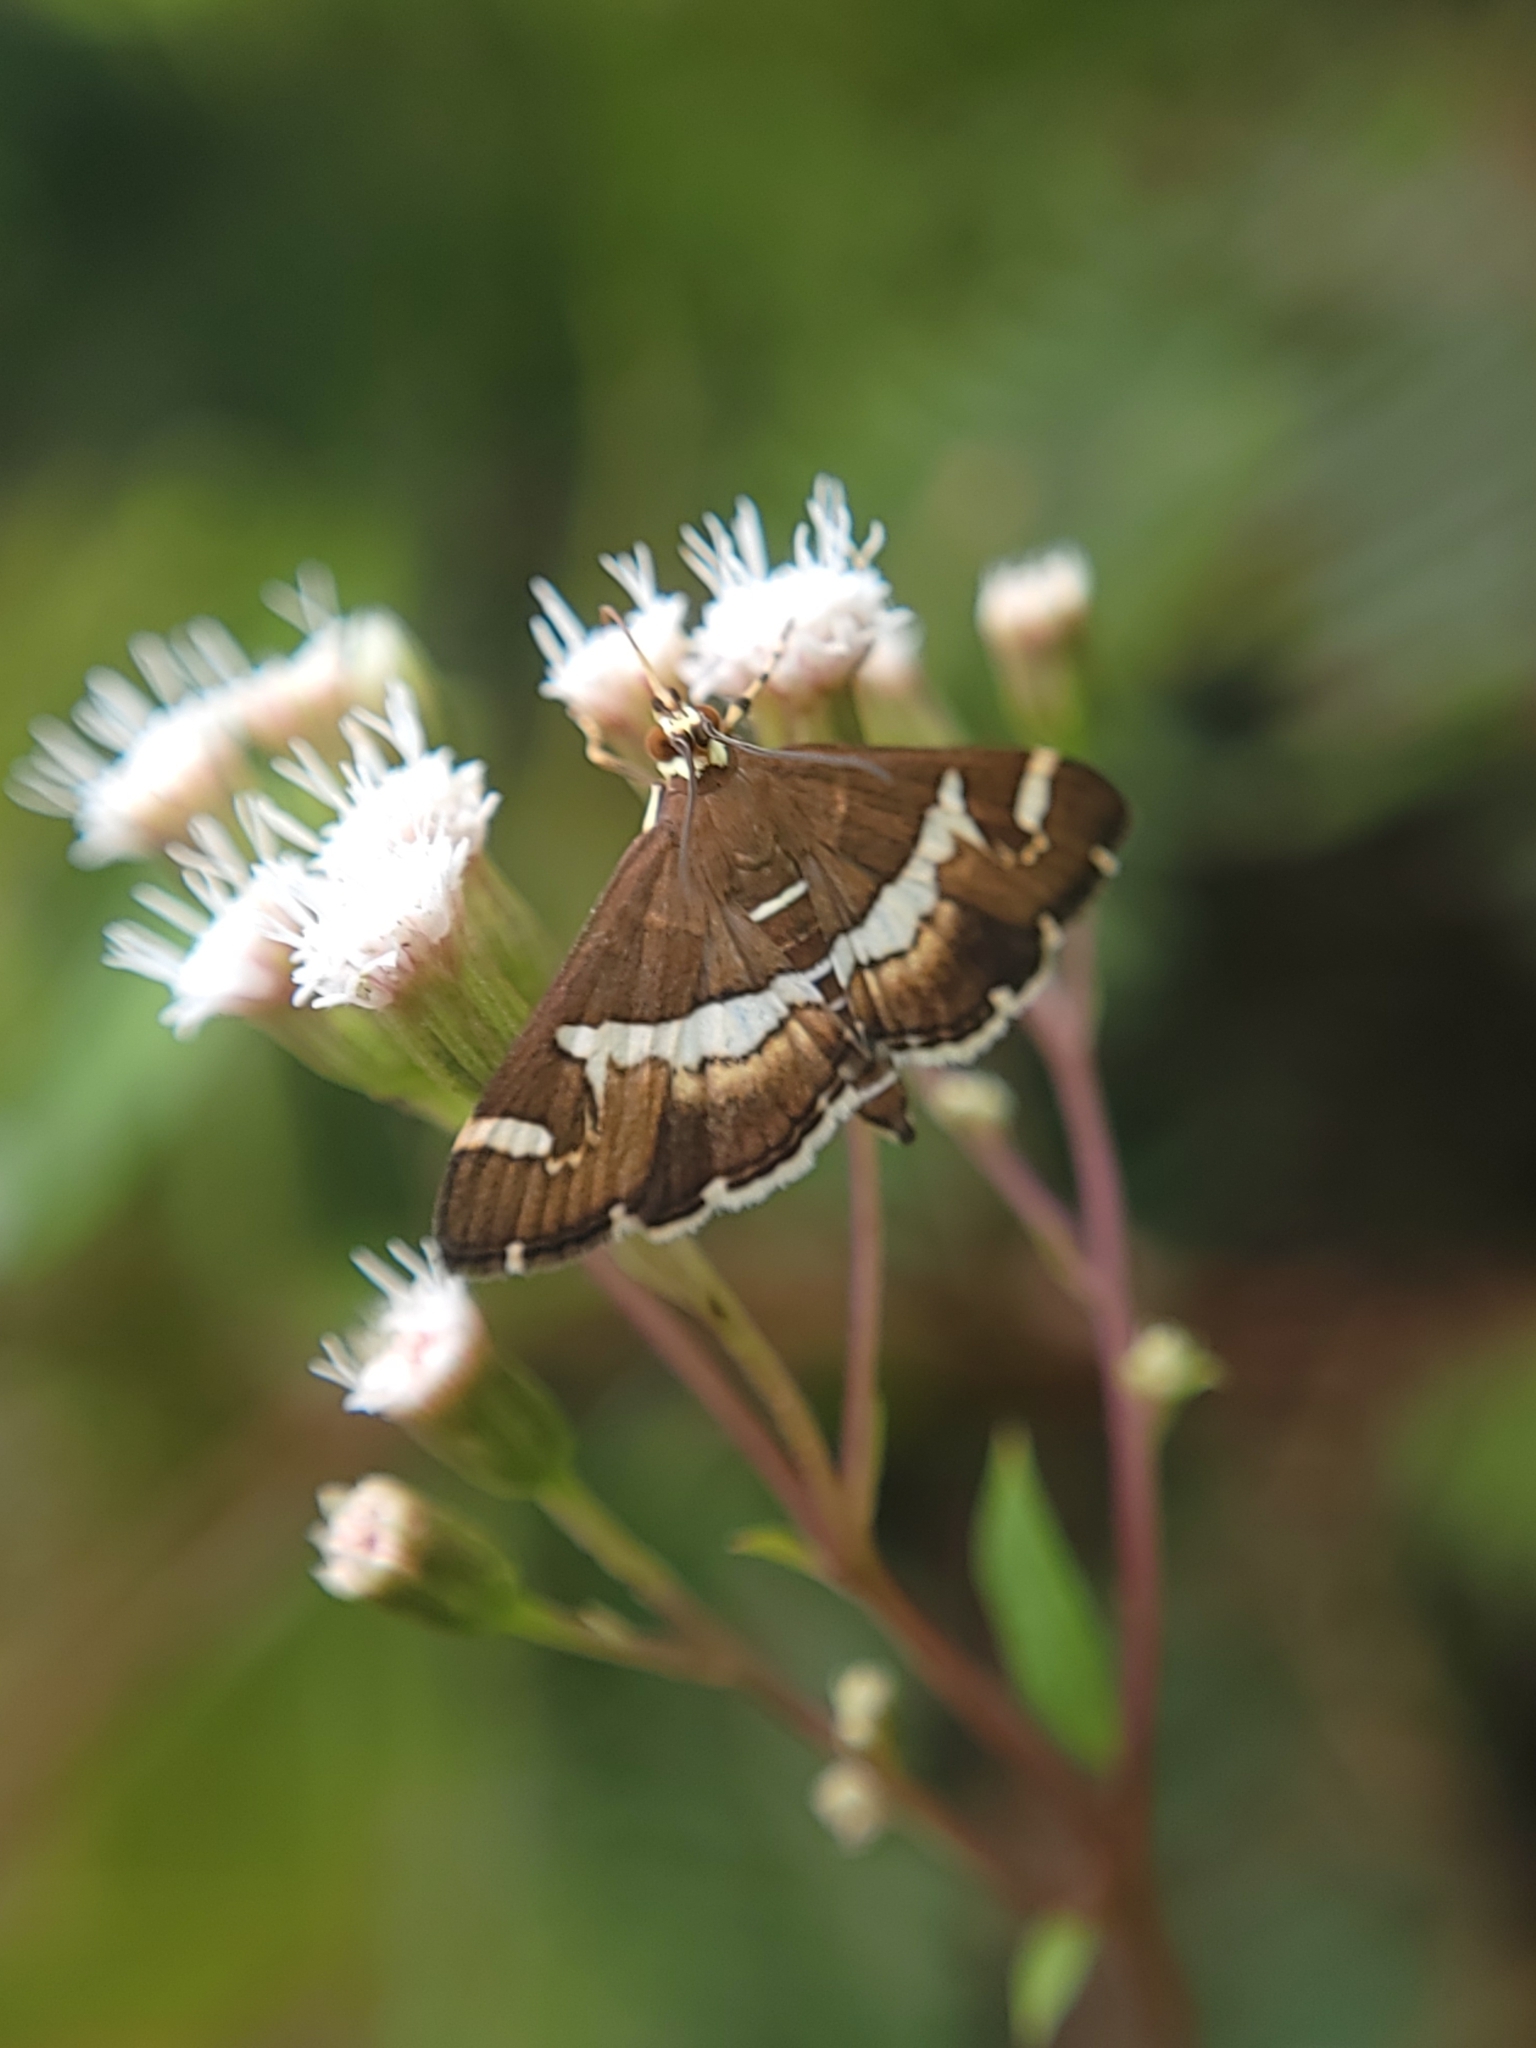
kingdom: Animalia
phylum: Arthropoda
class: Insecta
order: Lepidoptera
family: Crambidae
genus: Spoladea
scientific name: Spoladea recurvalis
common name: Beet webworm moth
